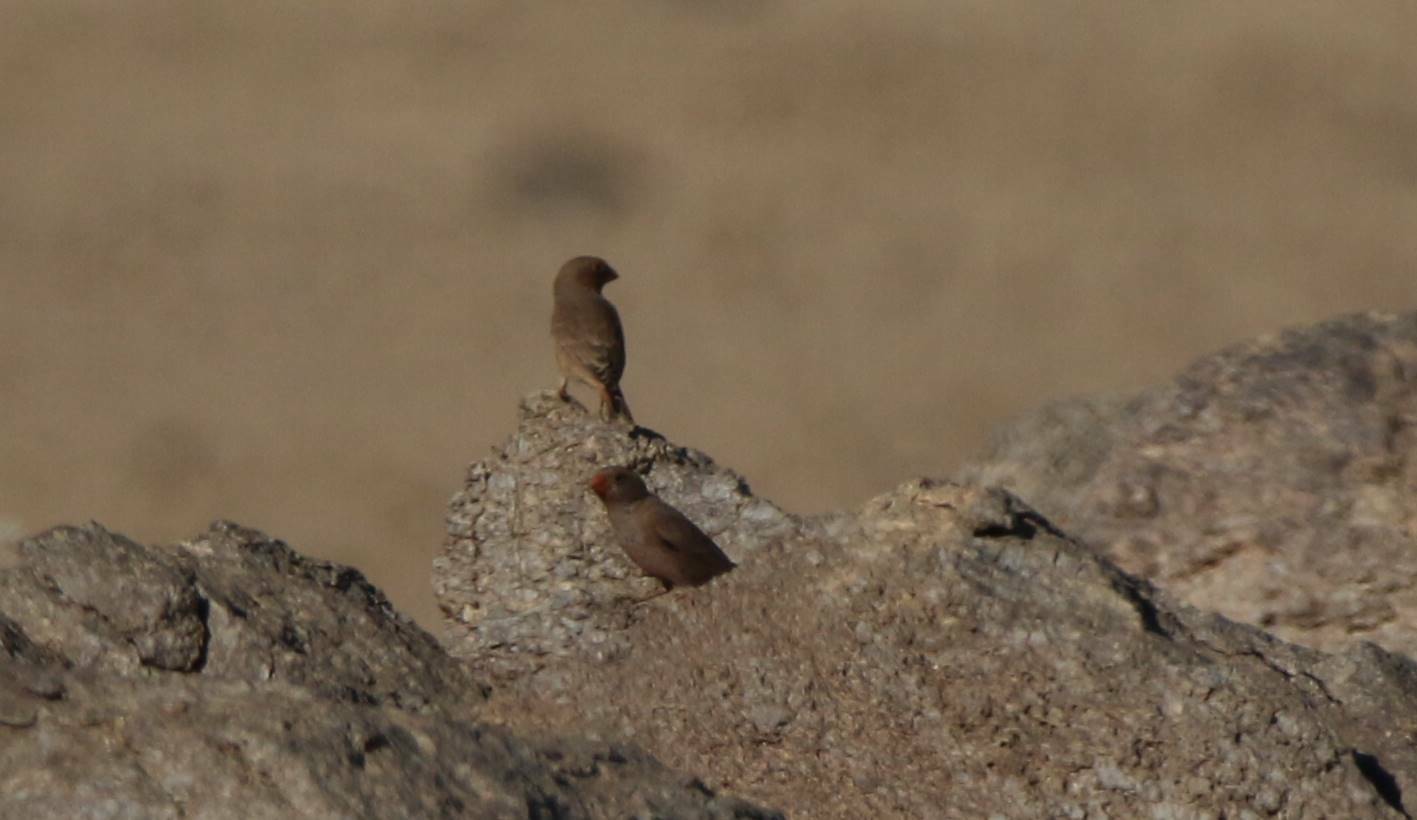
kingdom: Animalia
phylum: Chordata
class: Aves
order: Passeriformes
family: Fringillidae
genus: Bucanetes
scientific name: Bucanetes githagineus
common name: Trumpeter finch
